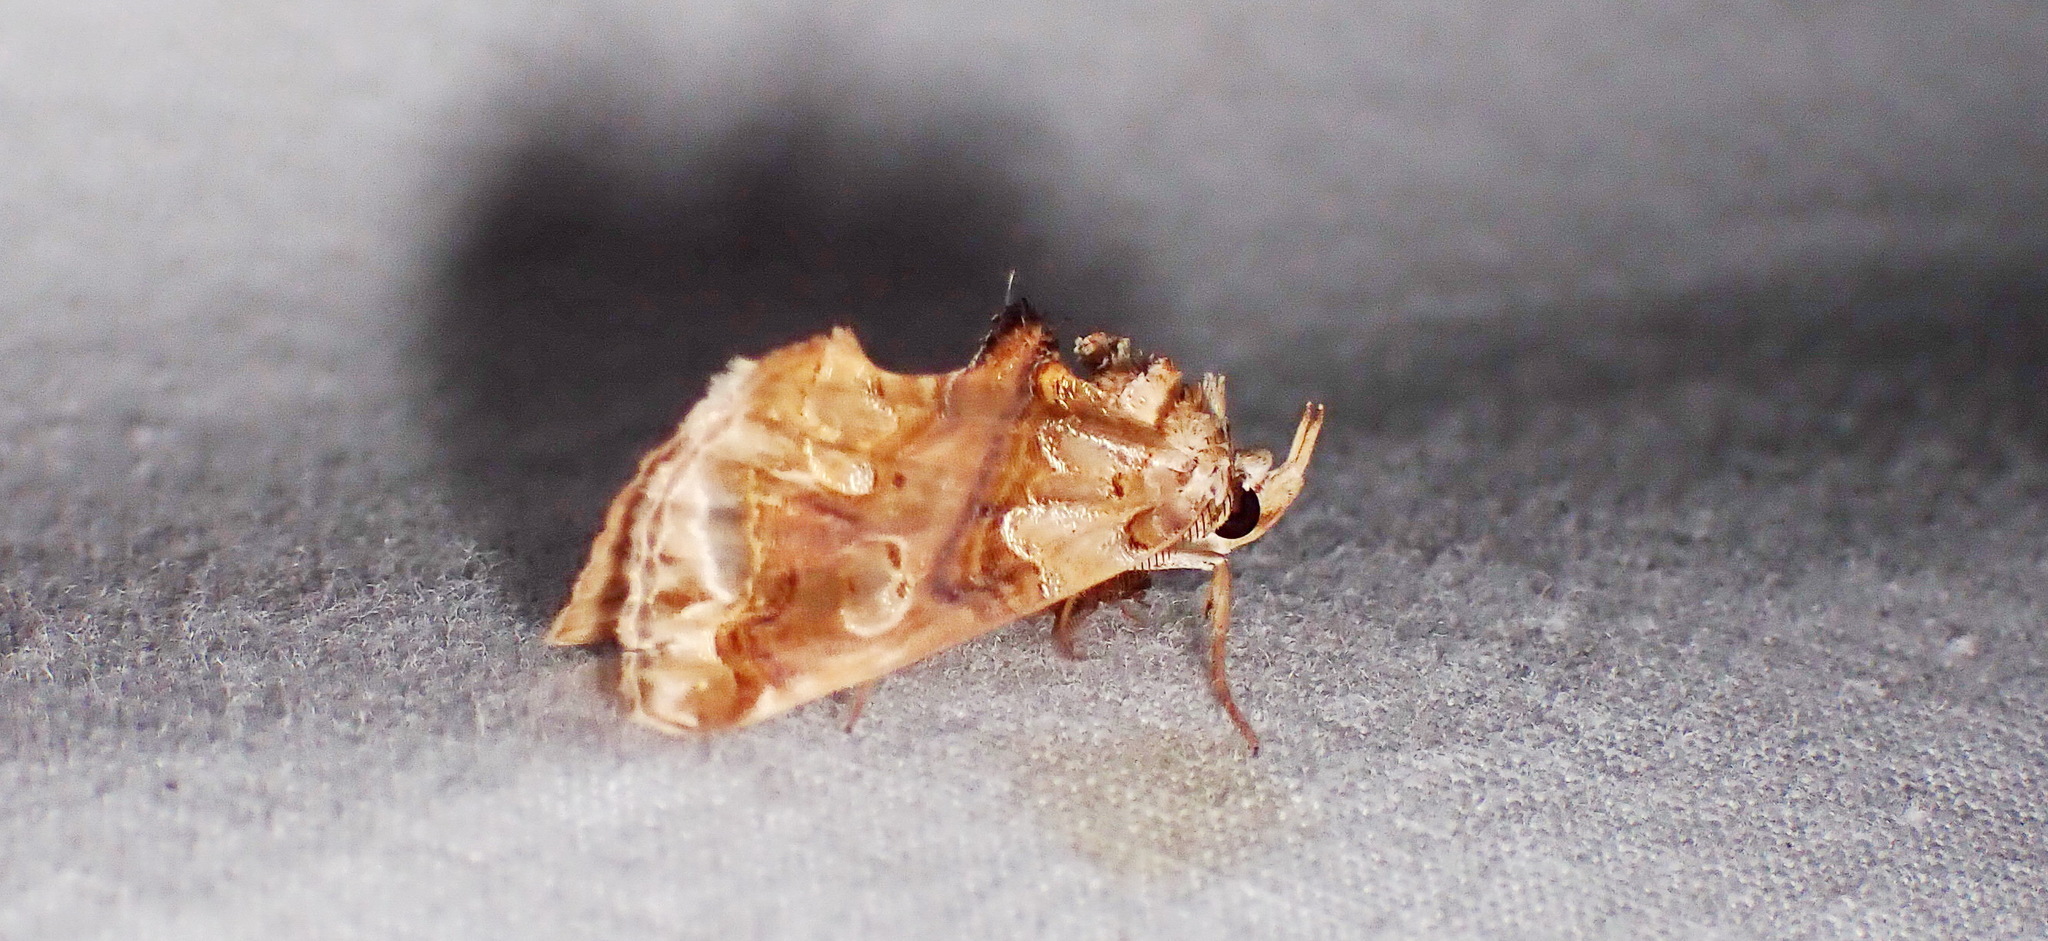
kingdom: Animalia
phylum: Arthropoda
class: Insecta
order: Lepidoptera
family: Erebidae
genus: Plusiodonta
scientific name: Plusiodonta compressipalpis
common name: Moonseed moth
